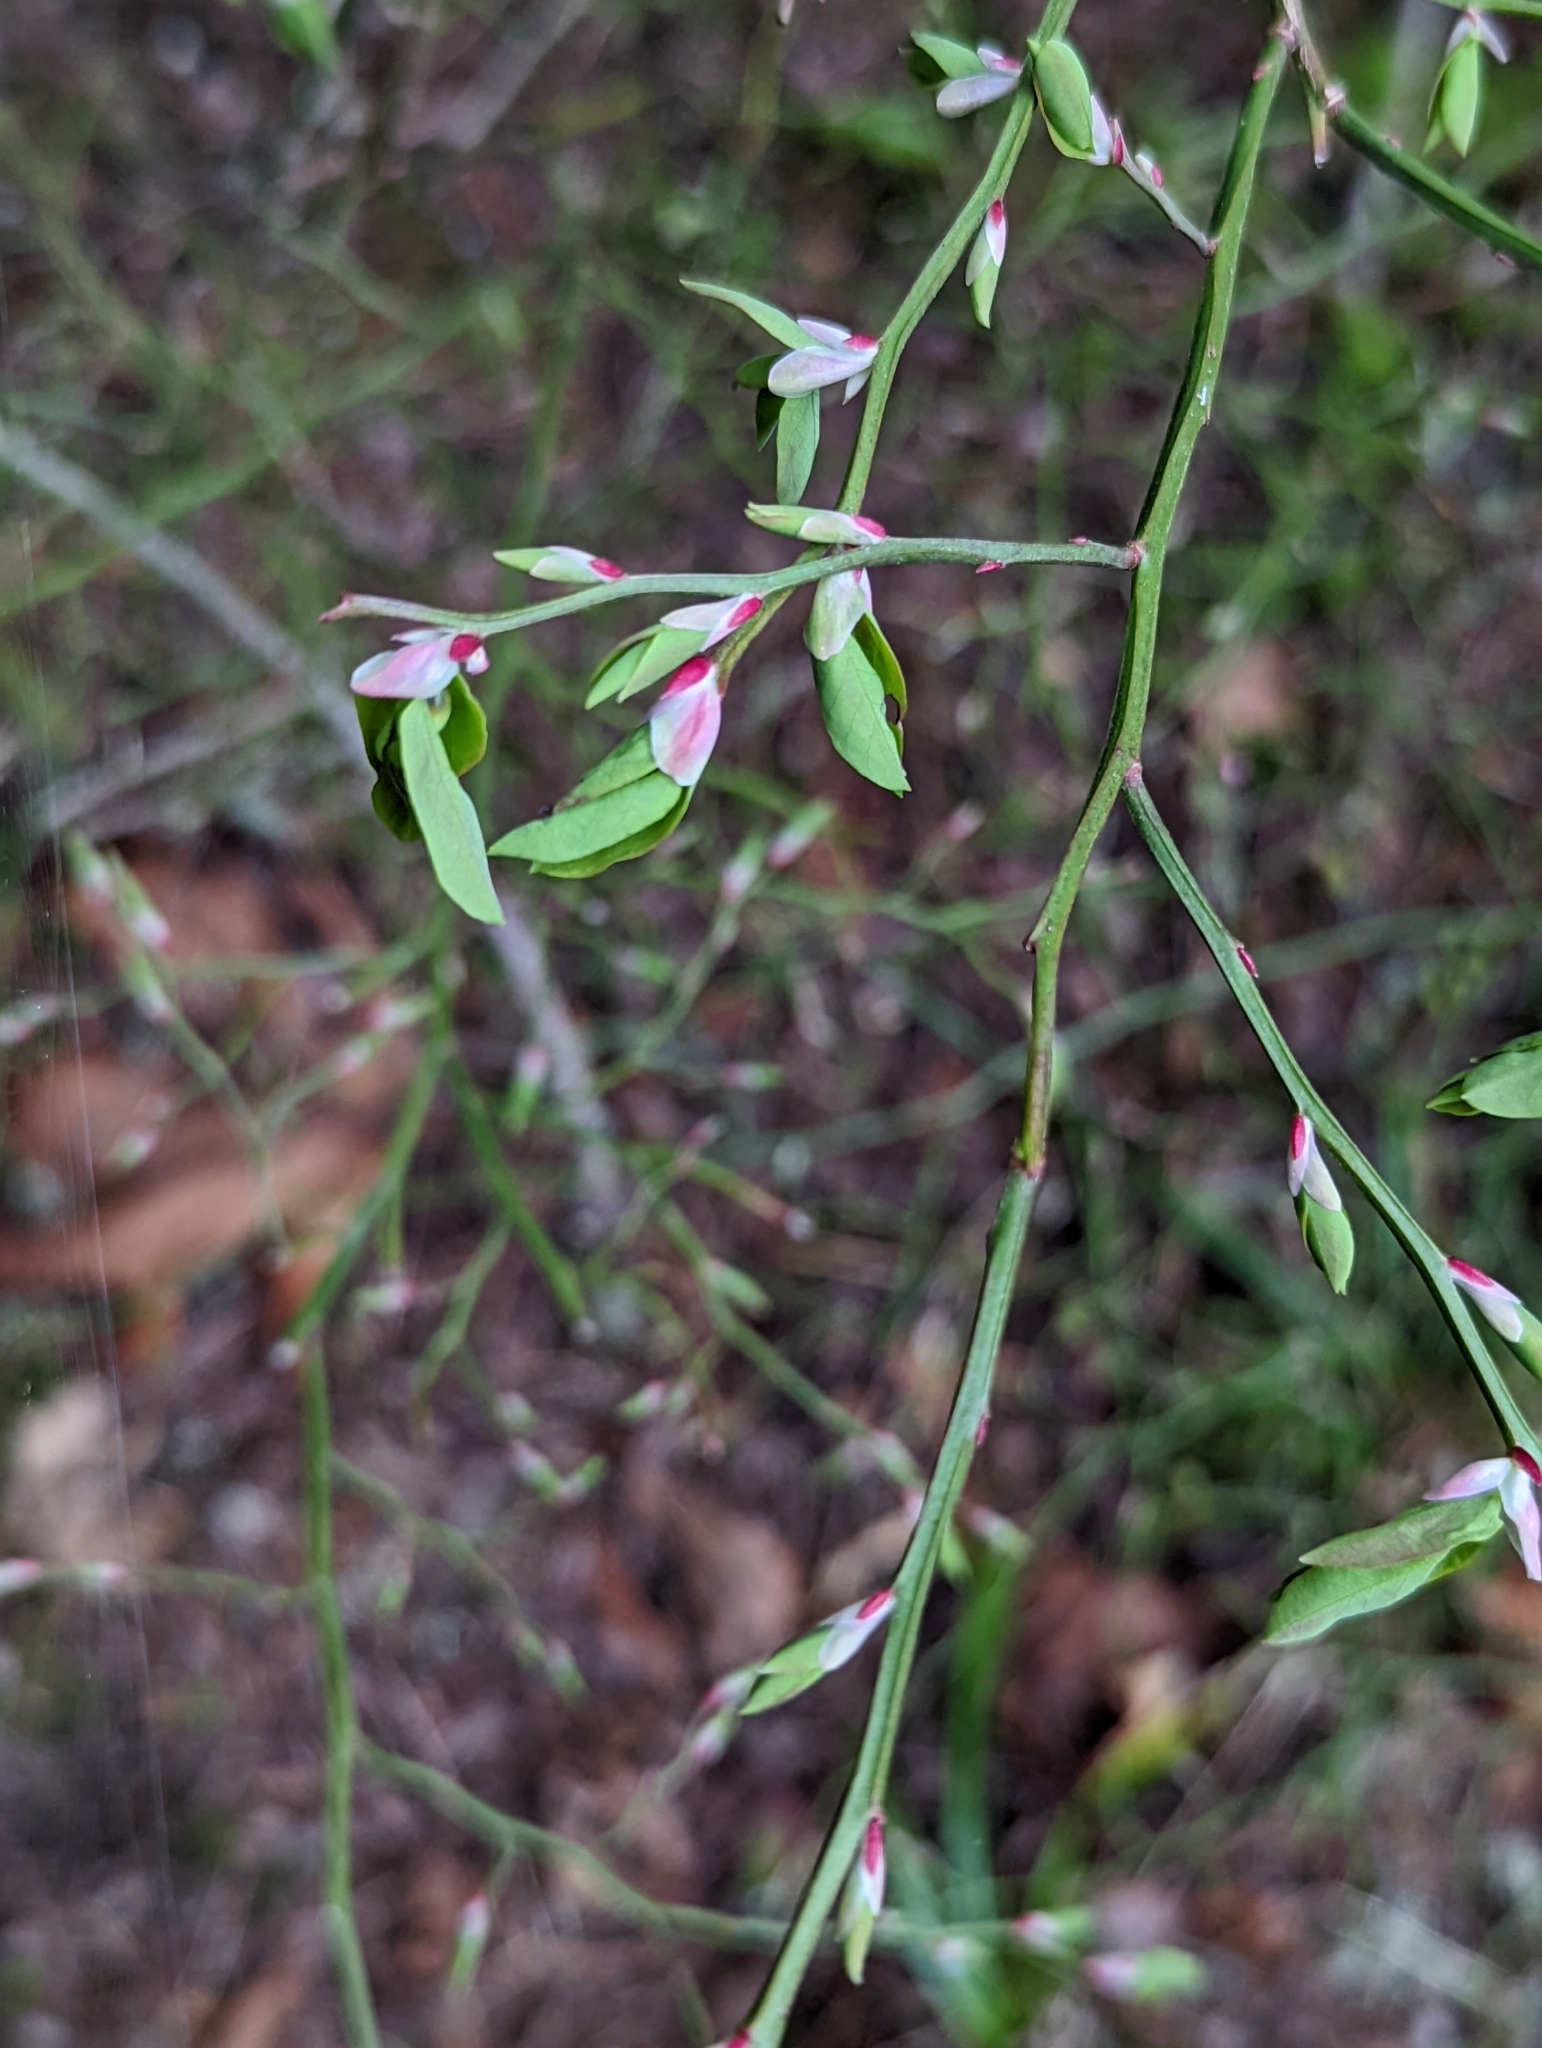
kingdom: Plantae
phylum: Tracheophyta
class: Magnoliopsida
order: Ericales
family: Ericaceae
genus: Vaccinium
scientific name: Vaccinium parvifolium
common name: Red-huckleberry
